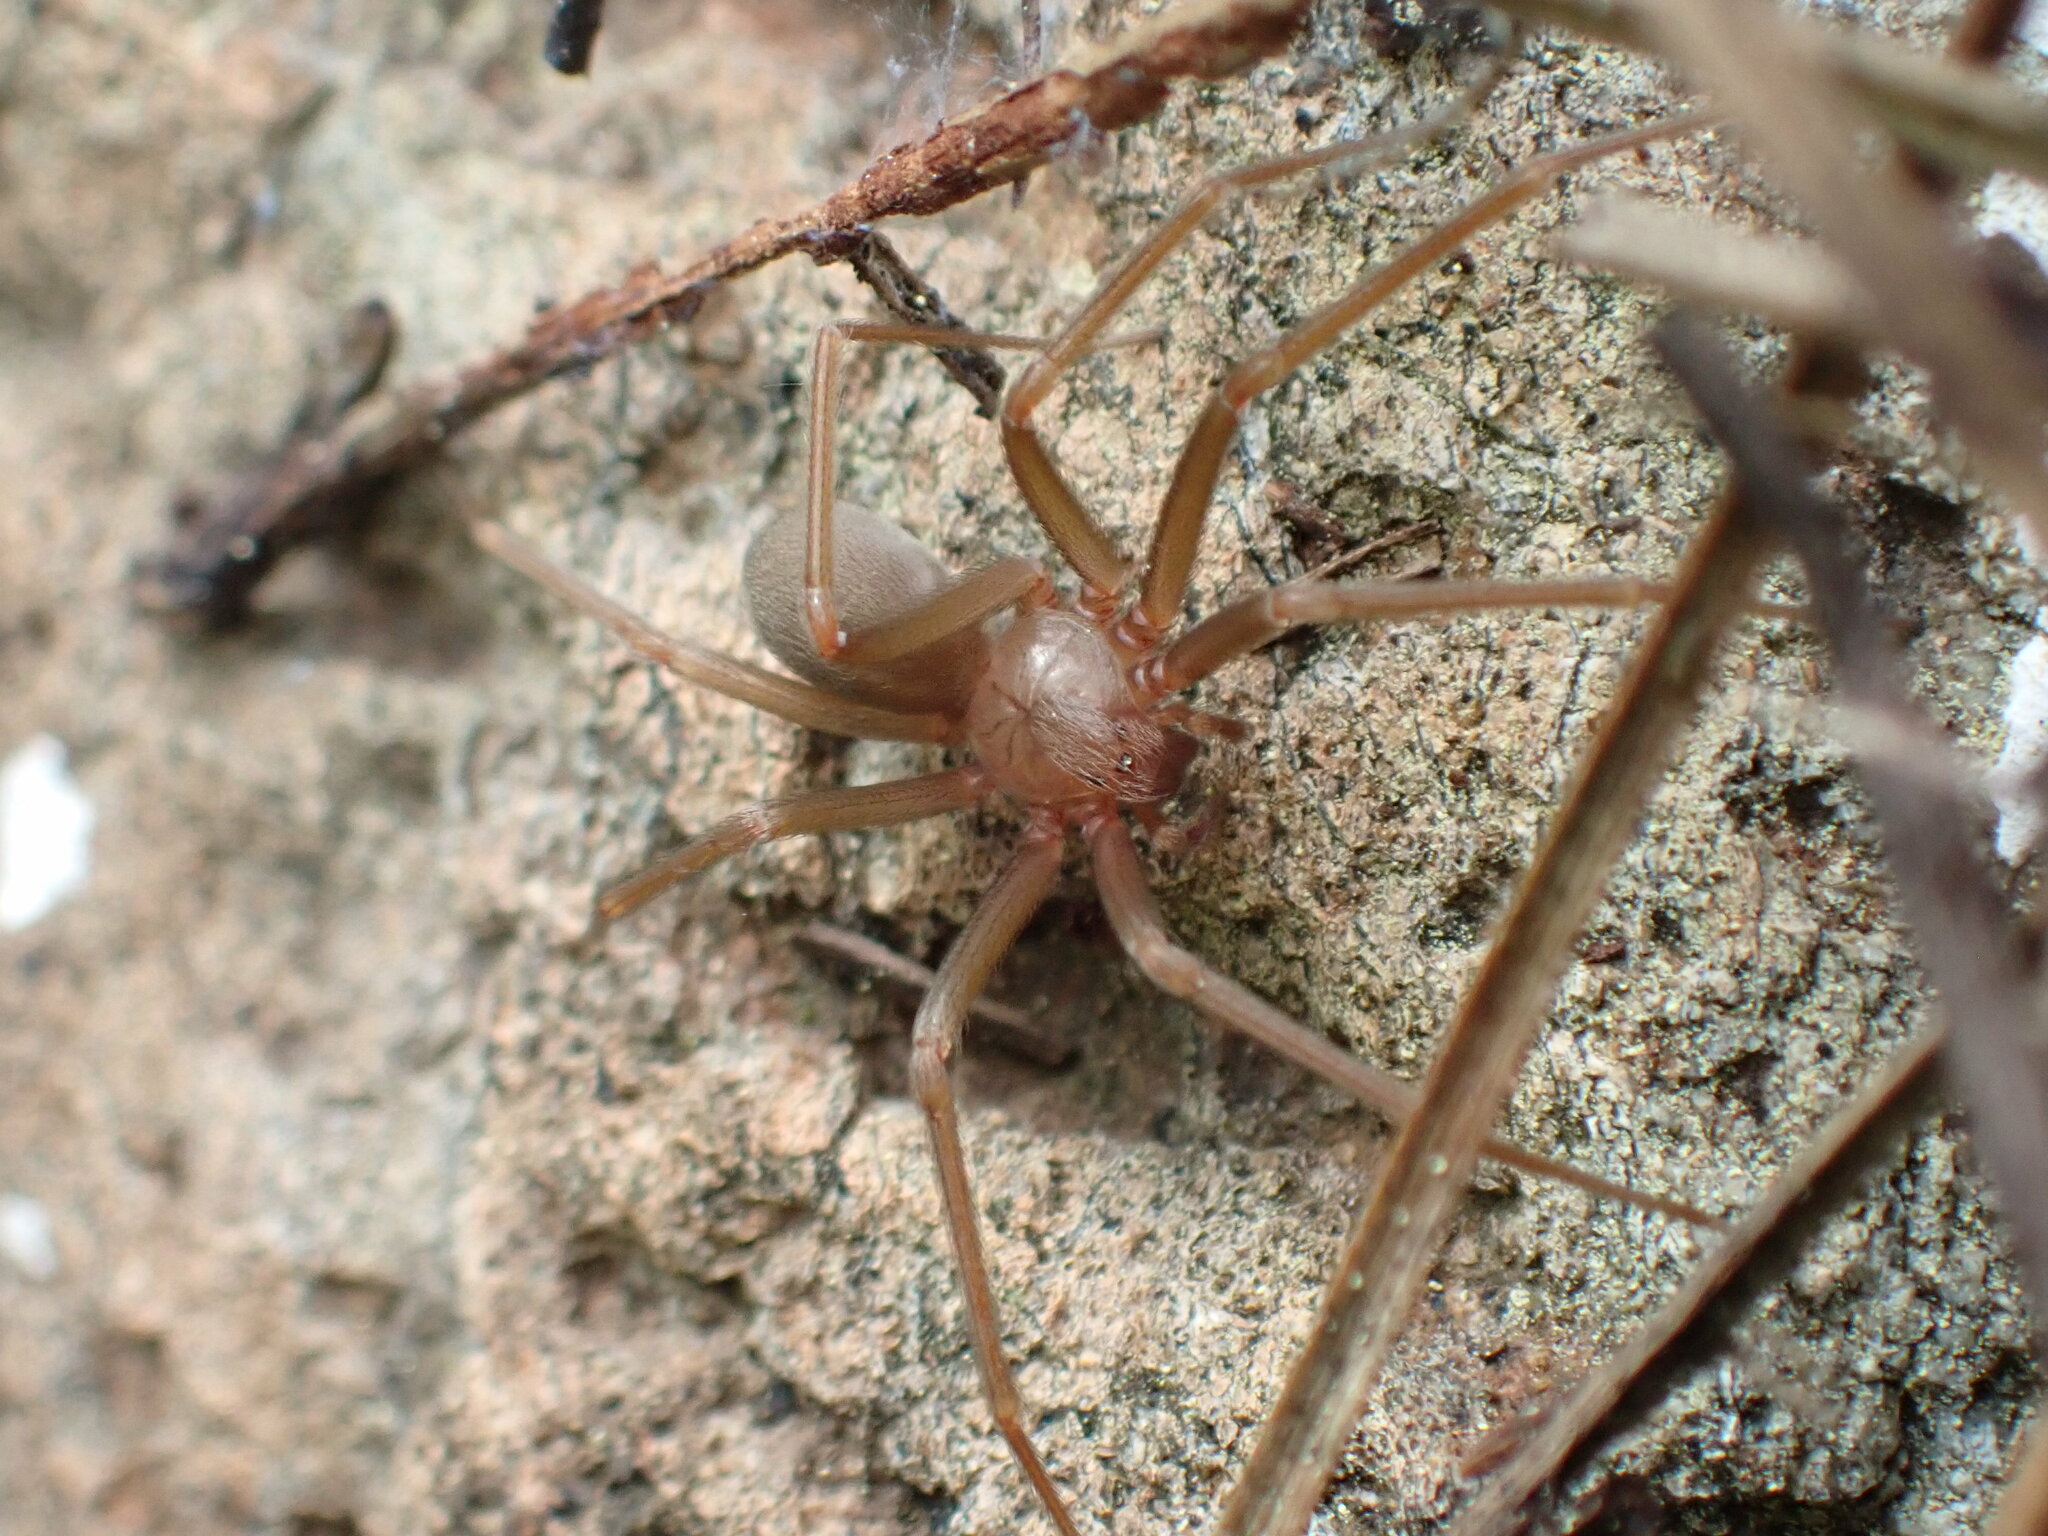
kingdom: Animalia
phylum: Arthropoda
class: Arachnida
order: Araneae
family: Sicariidae
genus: Loxosceles
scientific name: Loxosceles rufescens
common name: Mediterranean recluse spider
